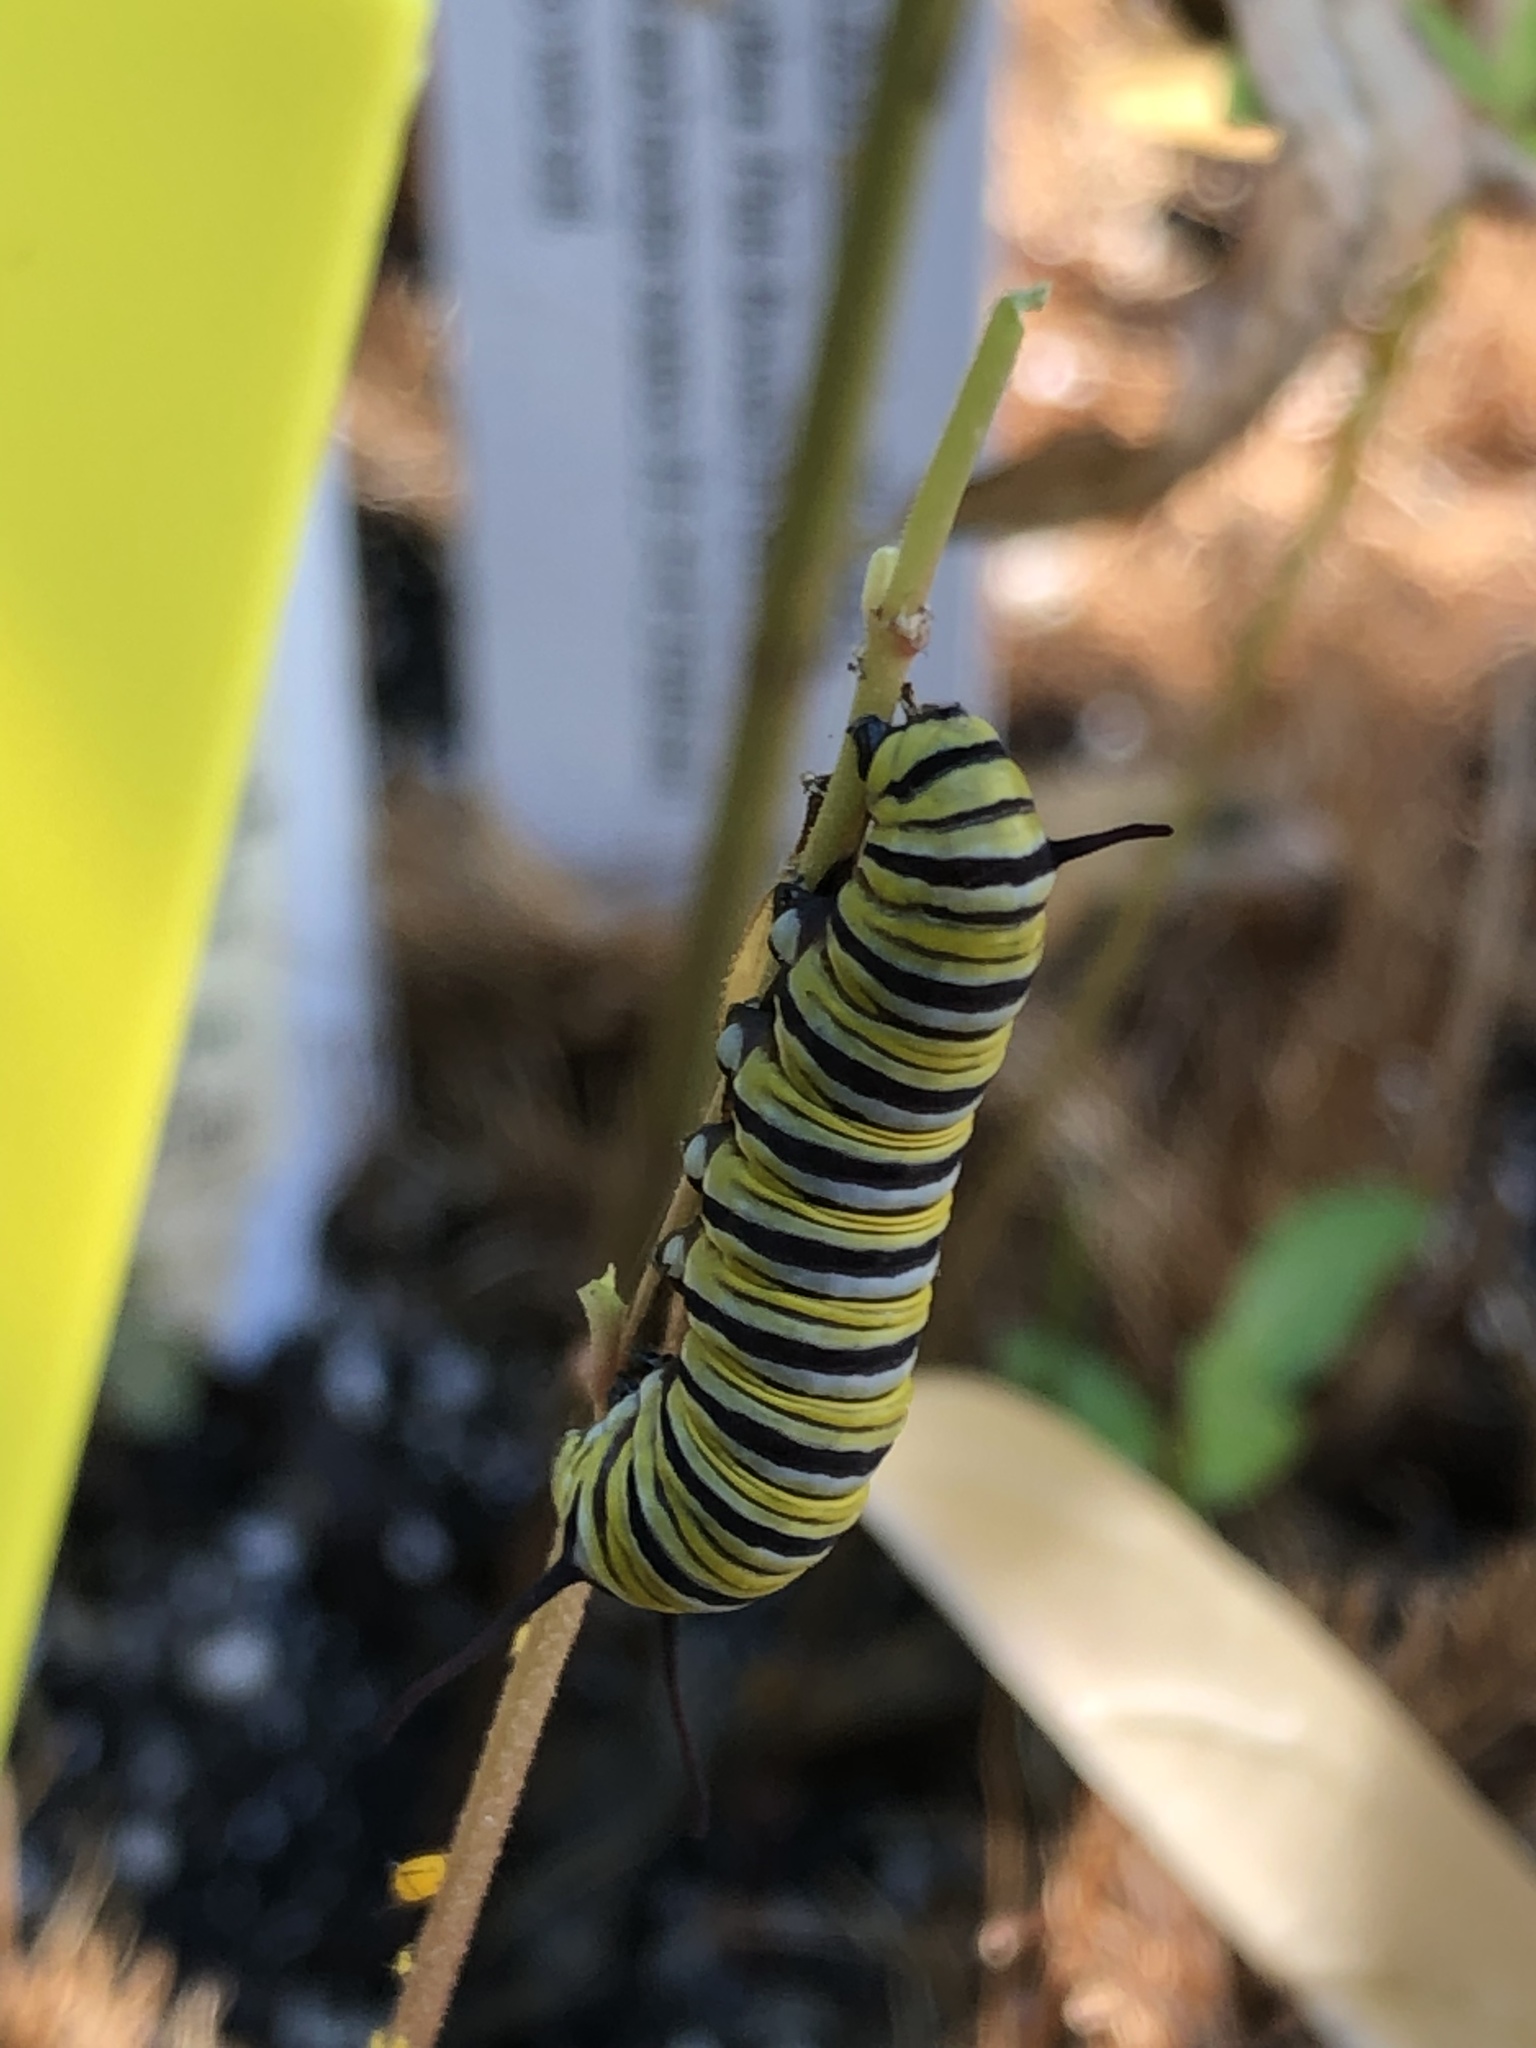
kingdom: Animalia
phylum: Arthropoda
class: Insecta
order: Lepidoptera
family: Nymphalidae
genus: Danaus
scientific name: Danaus plexippus
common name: Monarch
